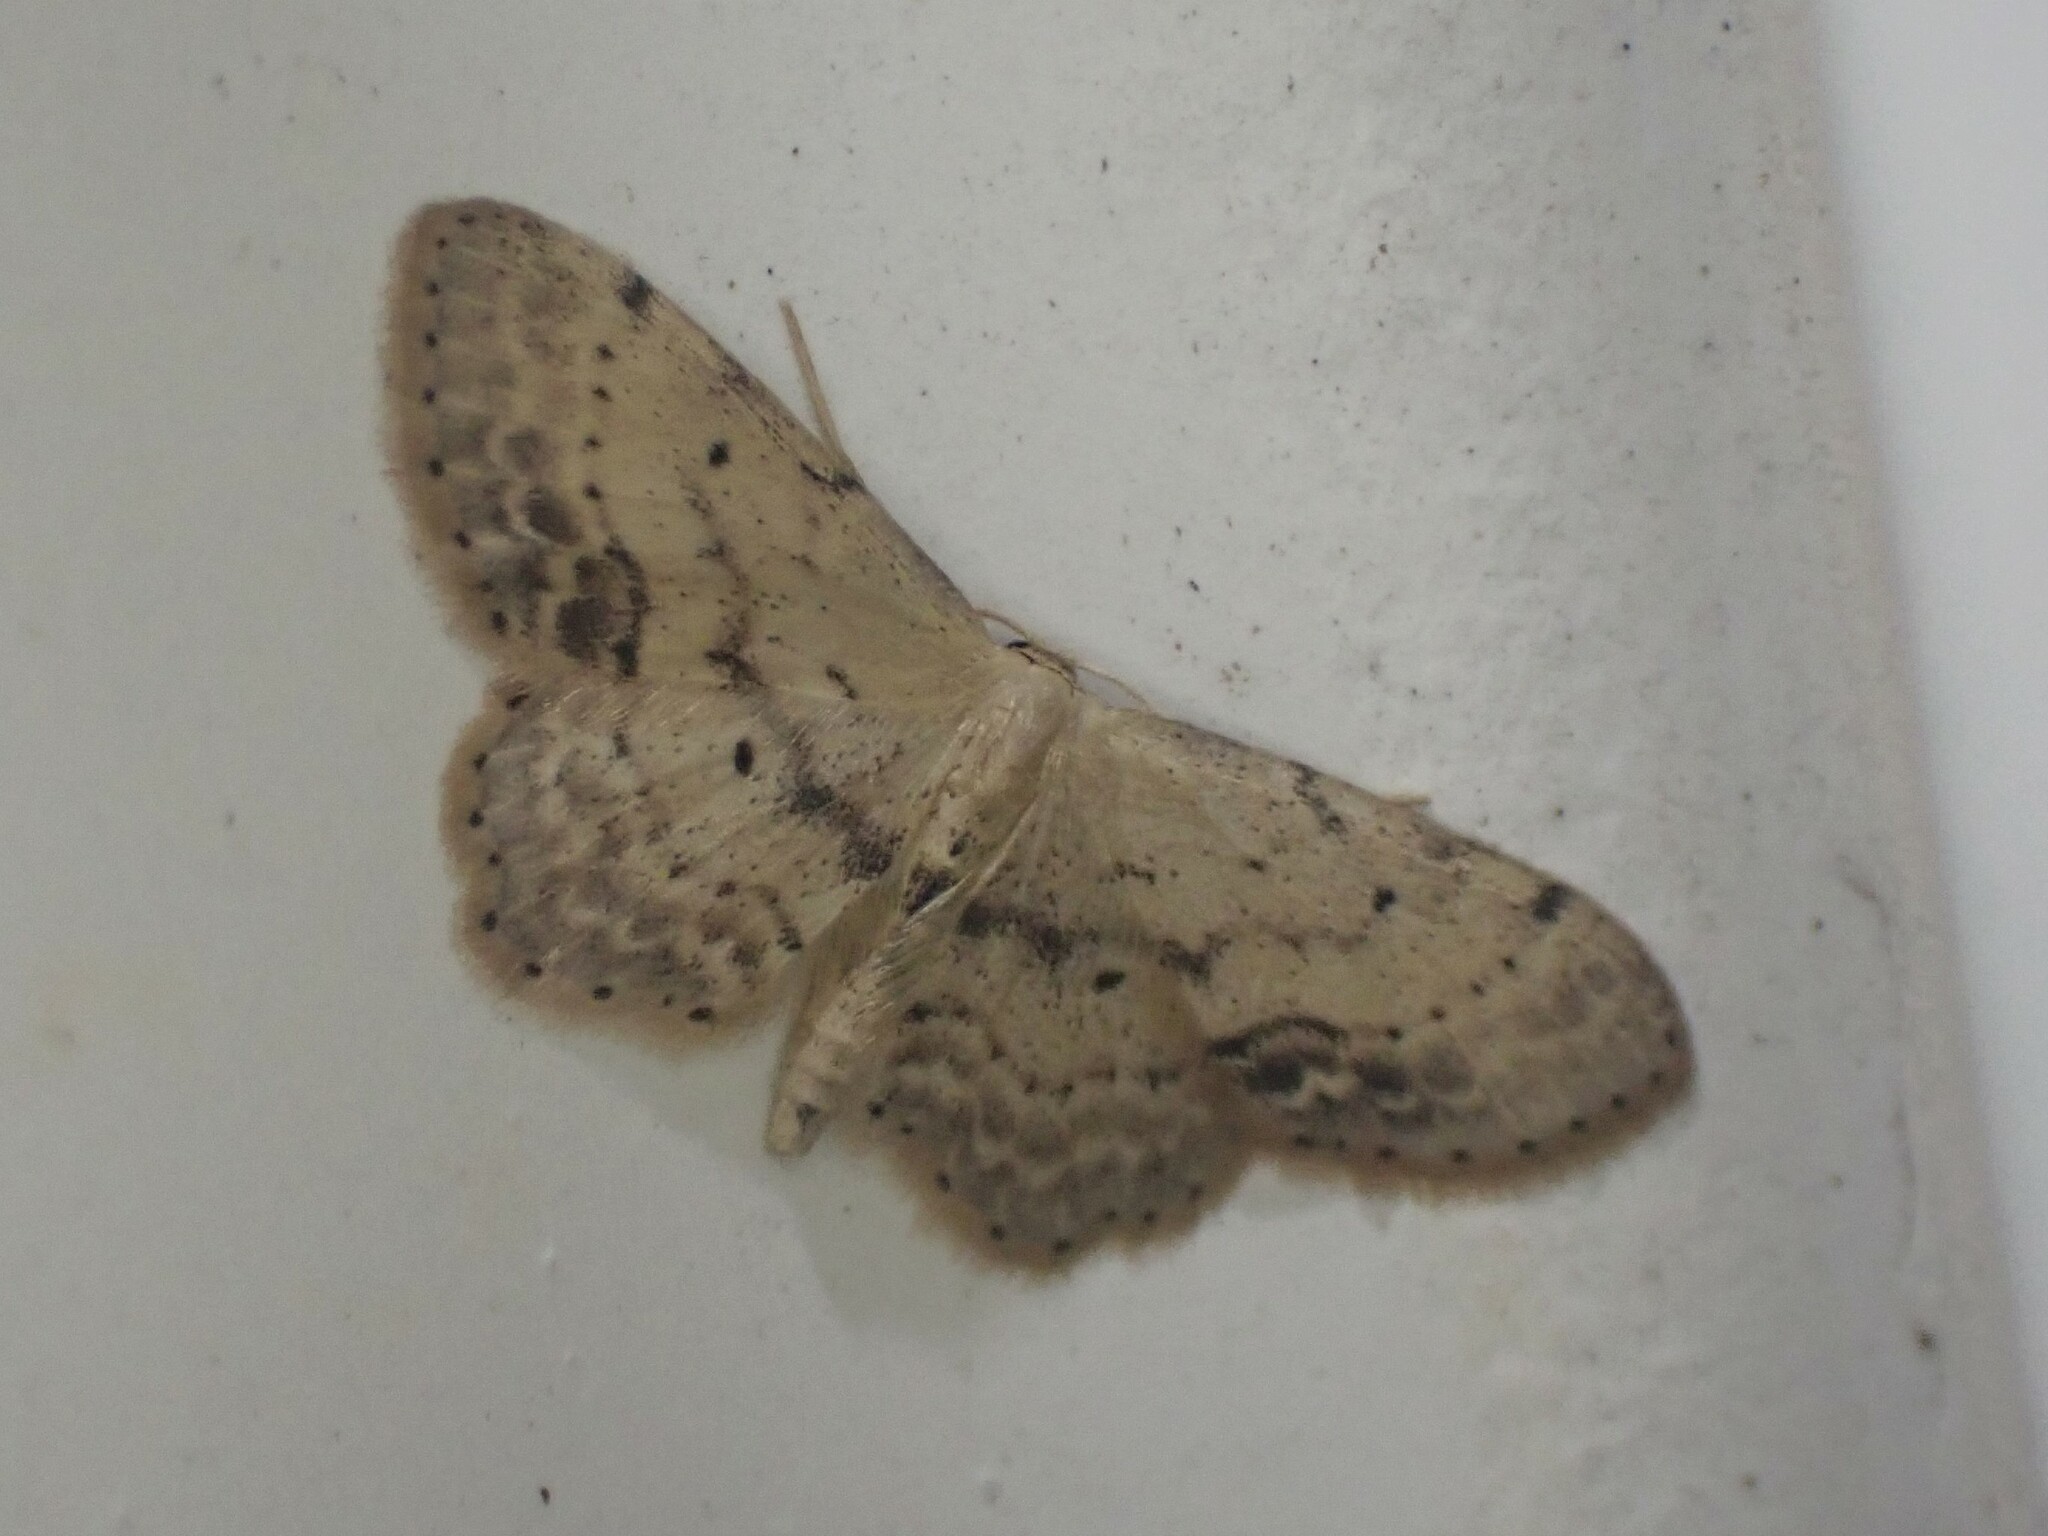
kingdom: Animalia
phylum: Arthropoda
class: Insecta
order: Lepidoptera
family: Geometridae
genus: Idaea
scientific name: Idaea dimidiata
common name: Single-dotted wave
